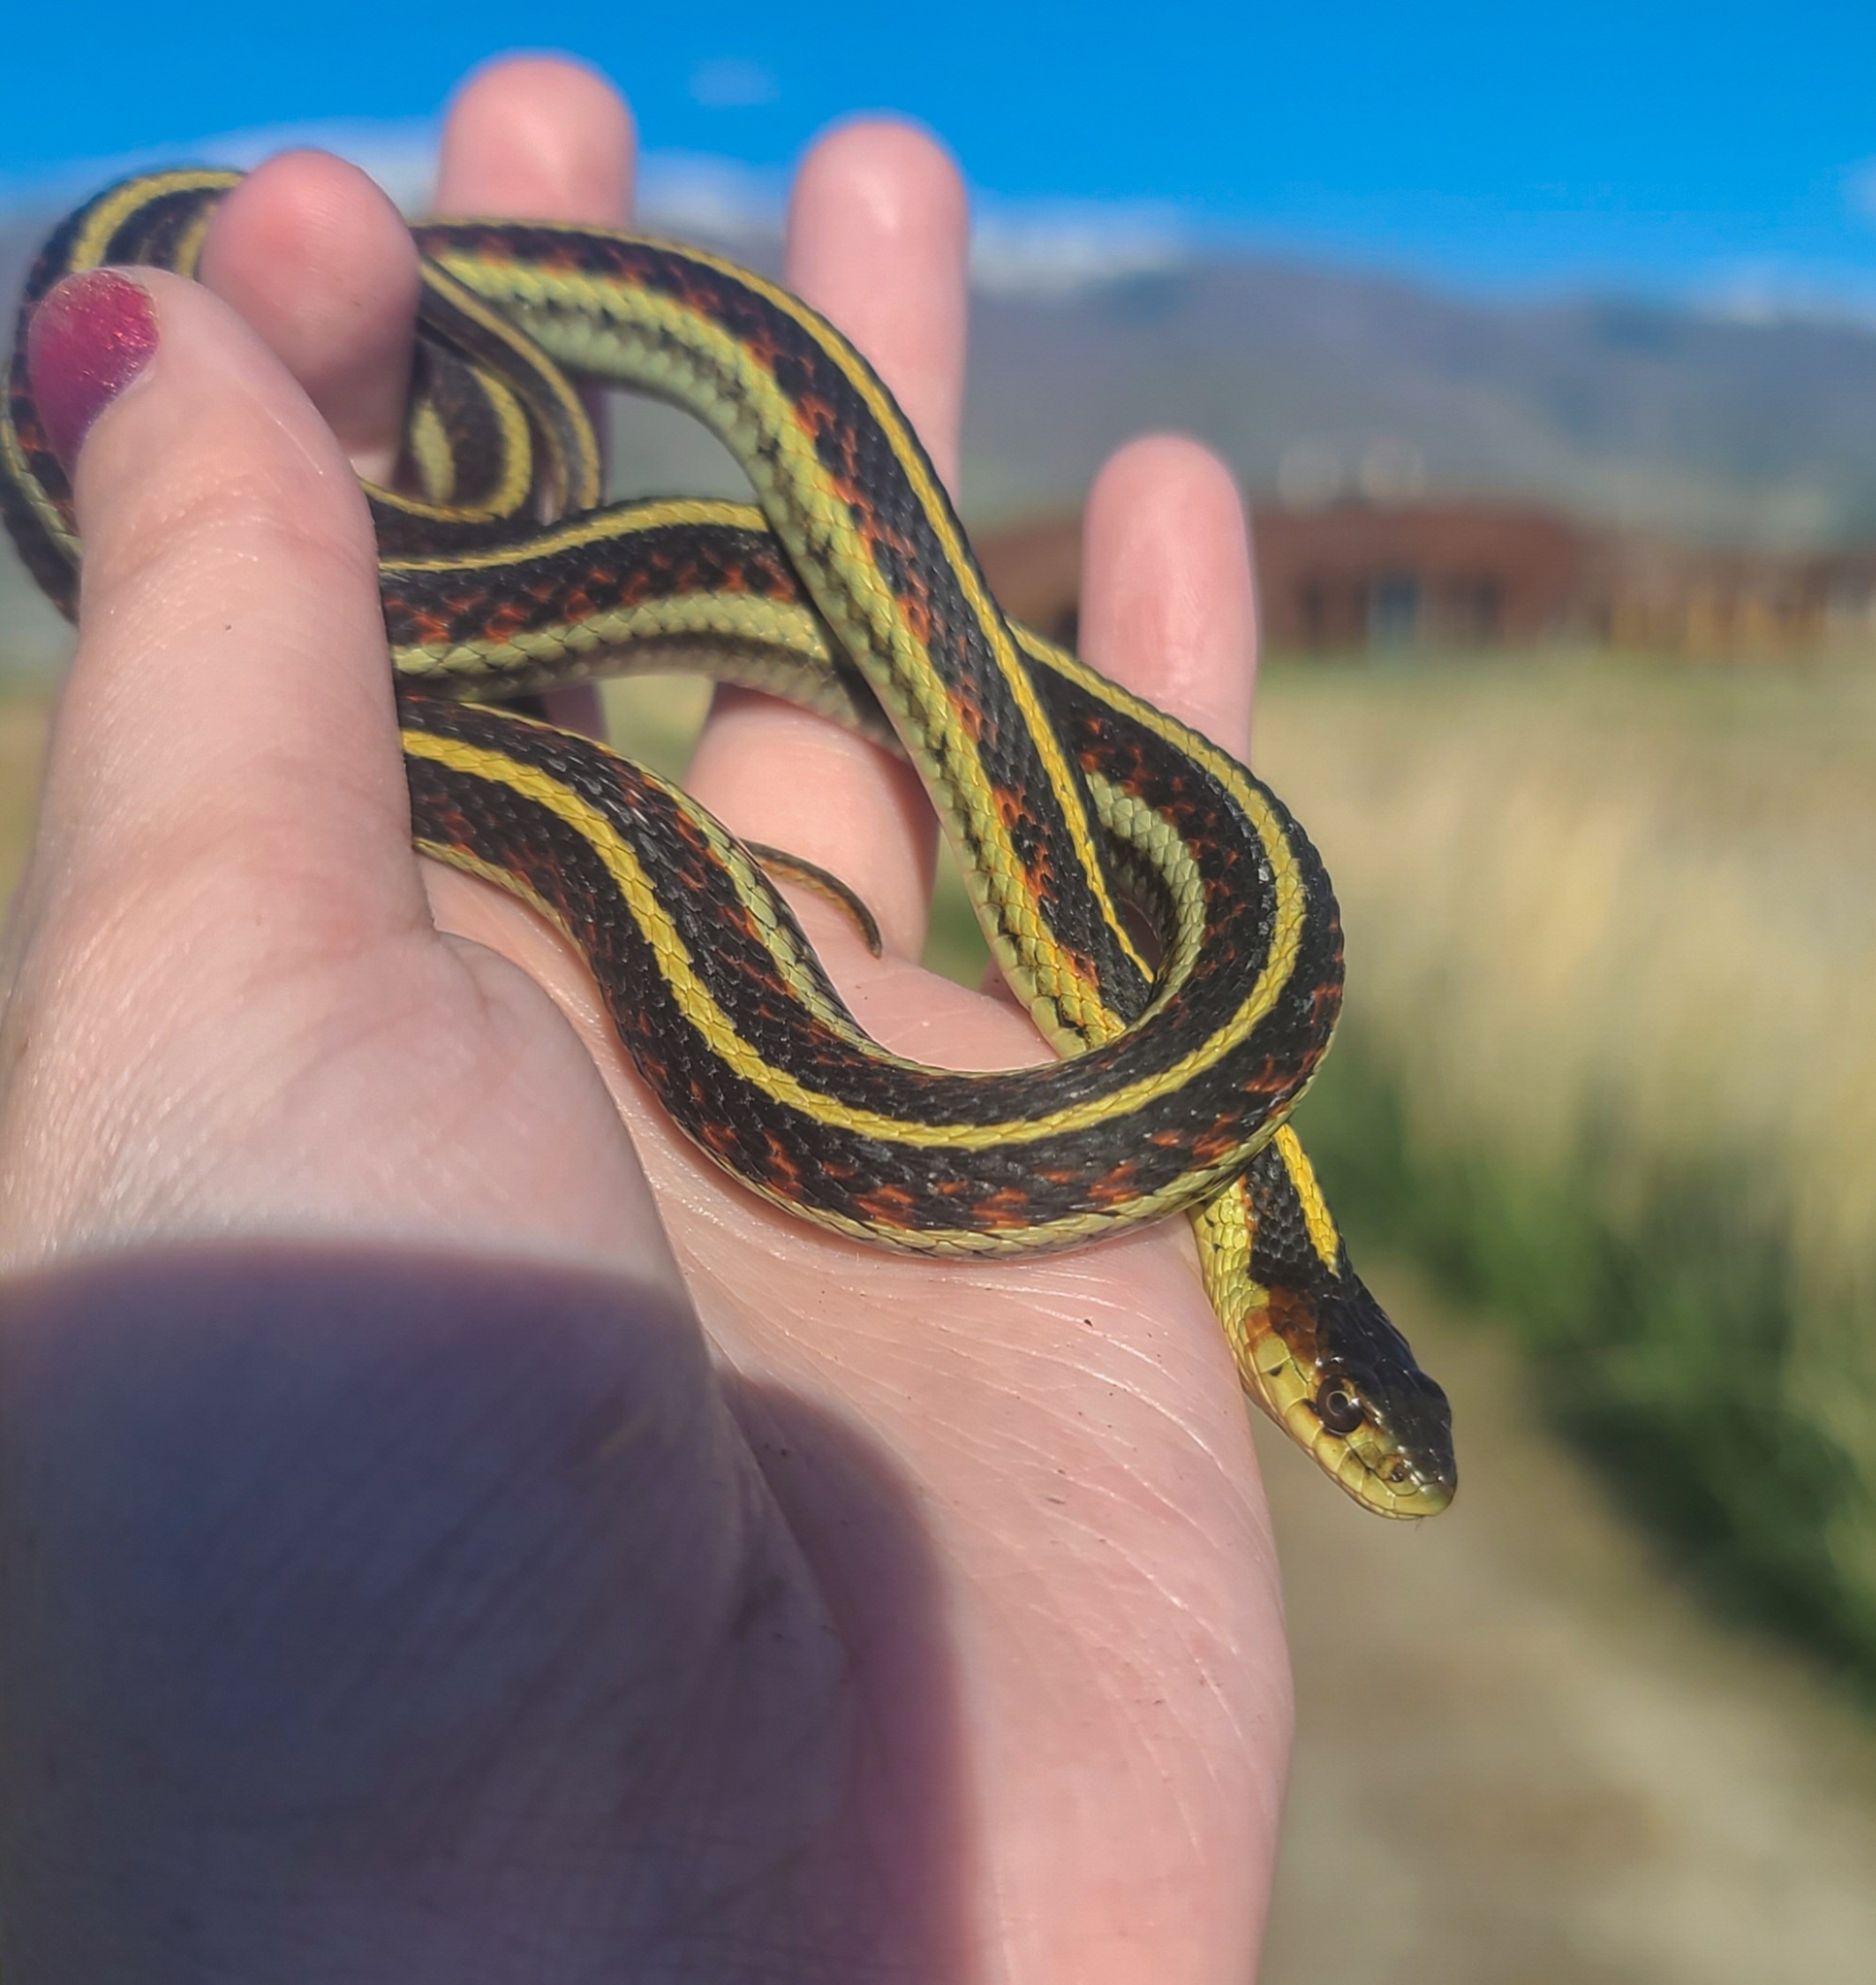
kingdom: Animalia
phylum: Chordata
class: Squamata
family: Colubridae
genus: Thamnophis
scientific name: Thamnophis sirtalis
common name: Common garter snake
